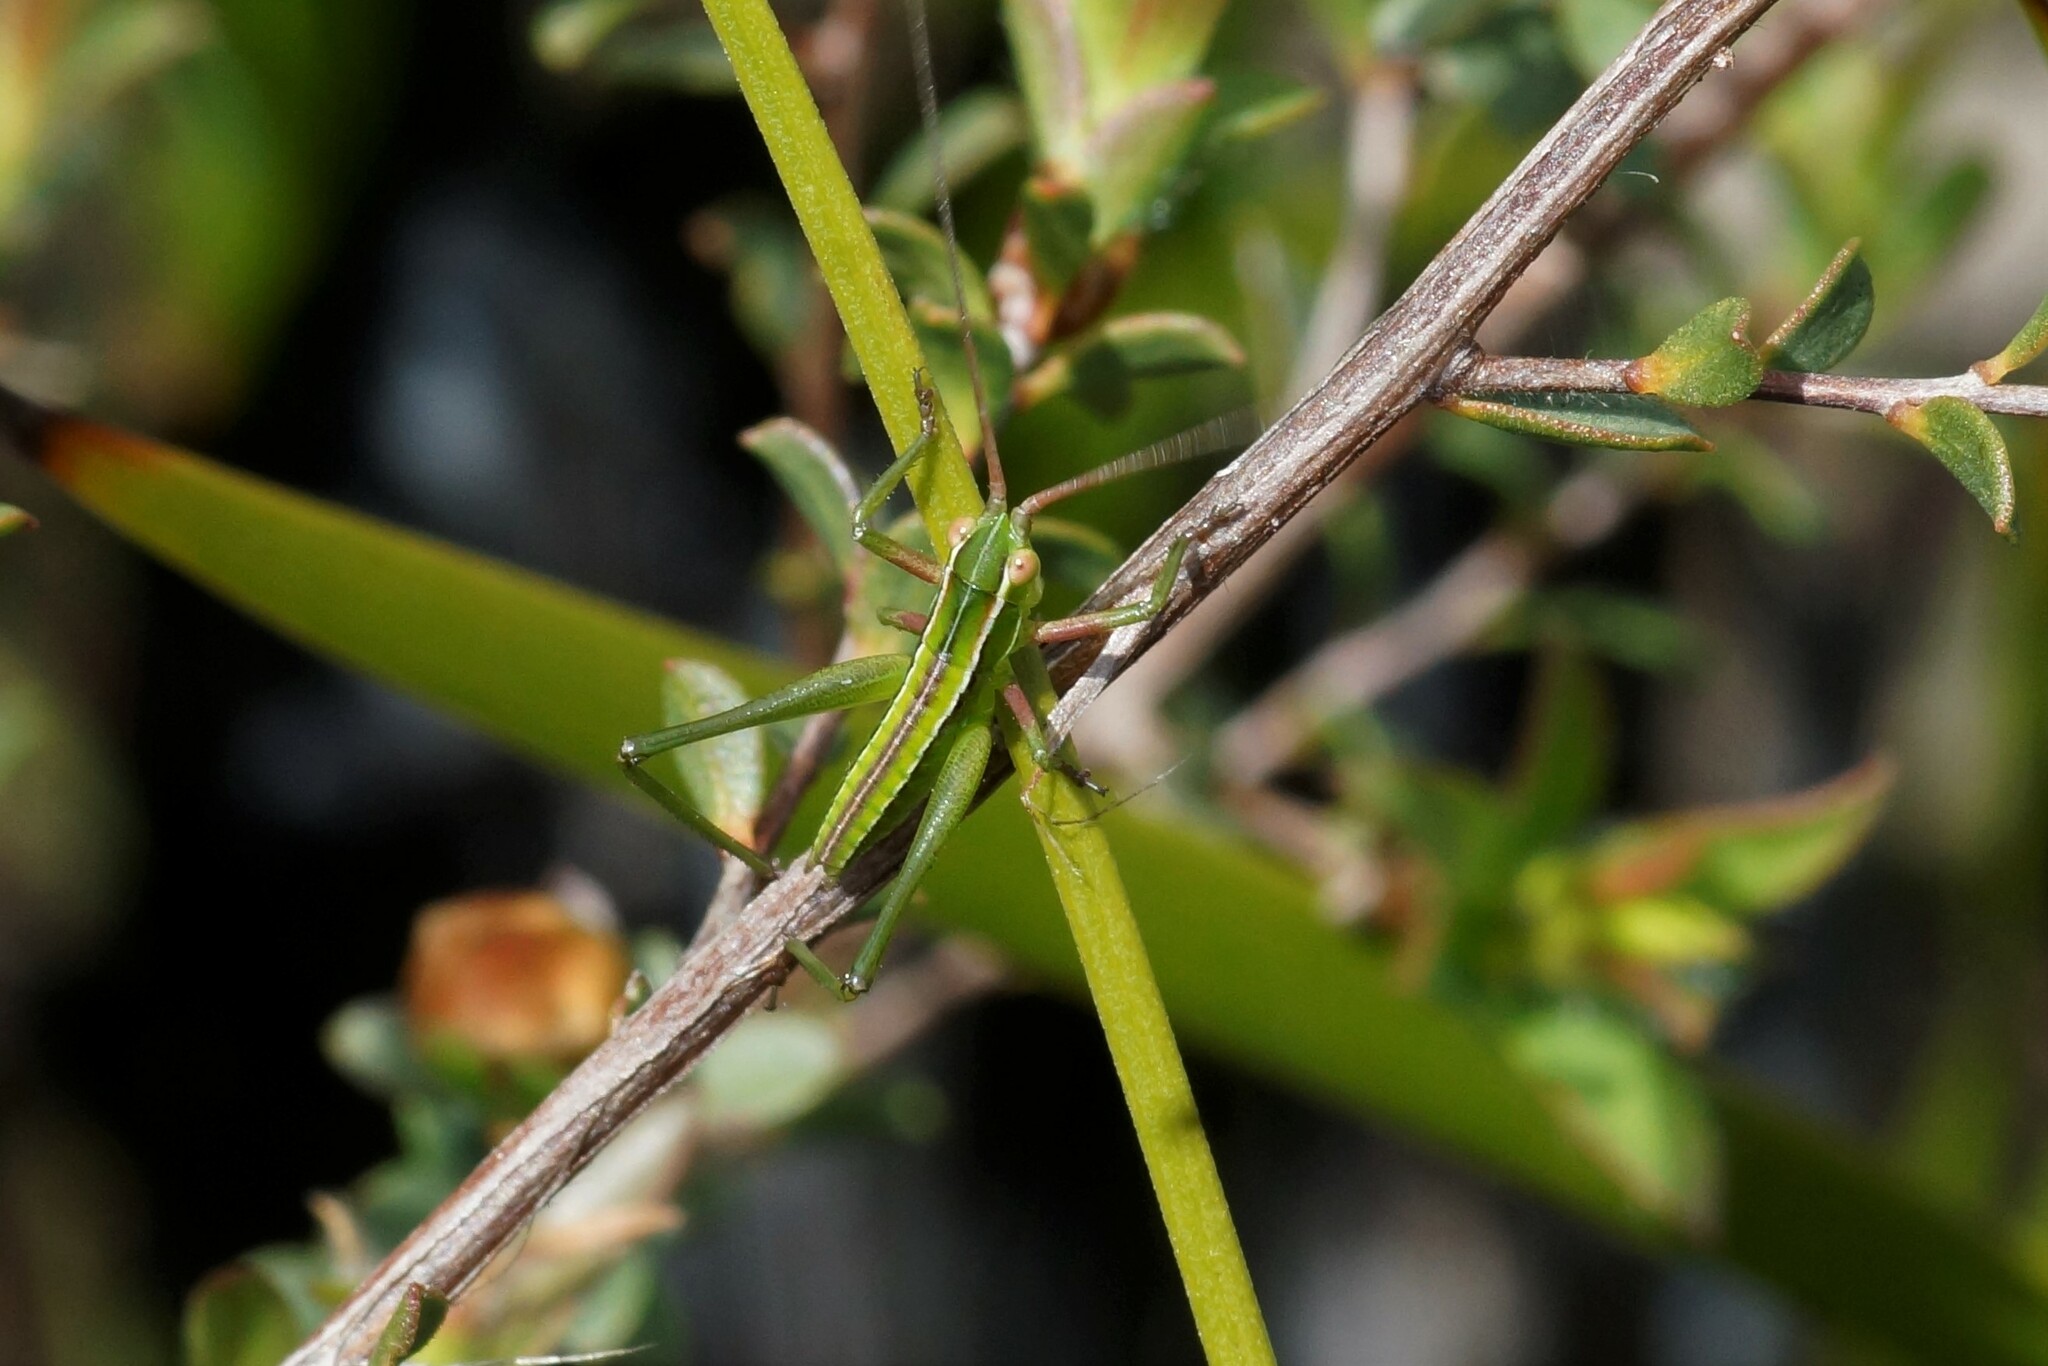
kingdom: Animalia
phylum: Arthropoda
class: Insecta
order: Orthoptera
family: Tettigoniidae
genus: Metaballus
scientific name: Metaballus sagaeformis
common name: Adelaide marauding katydid
